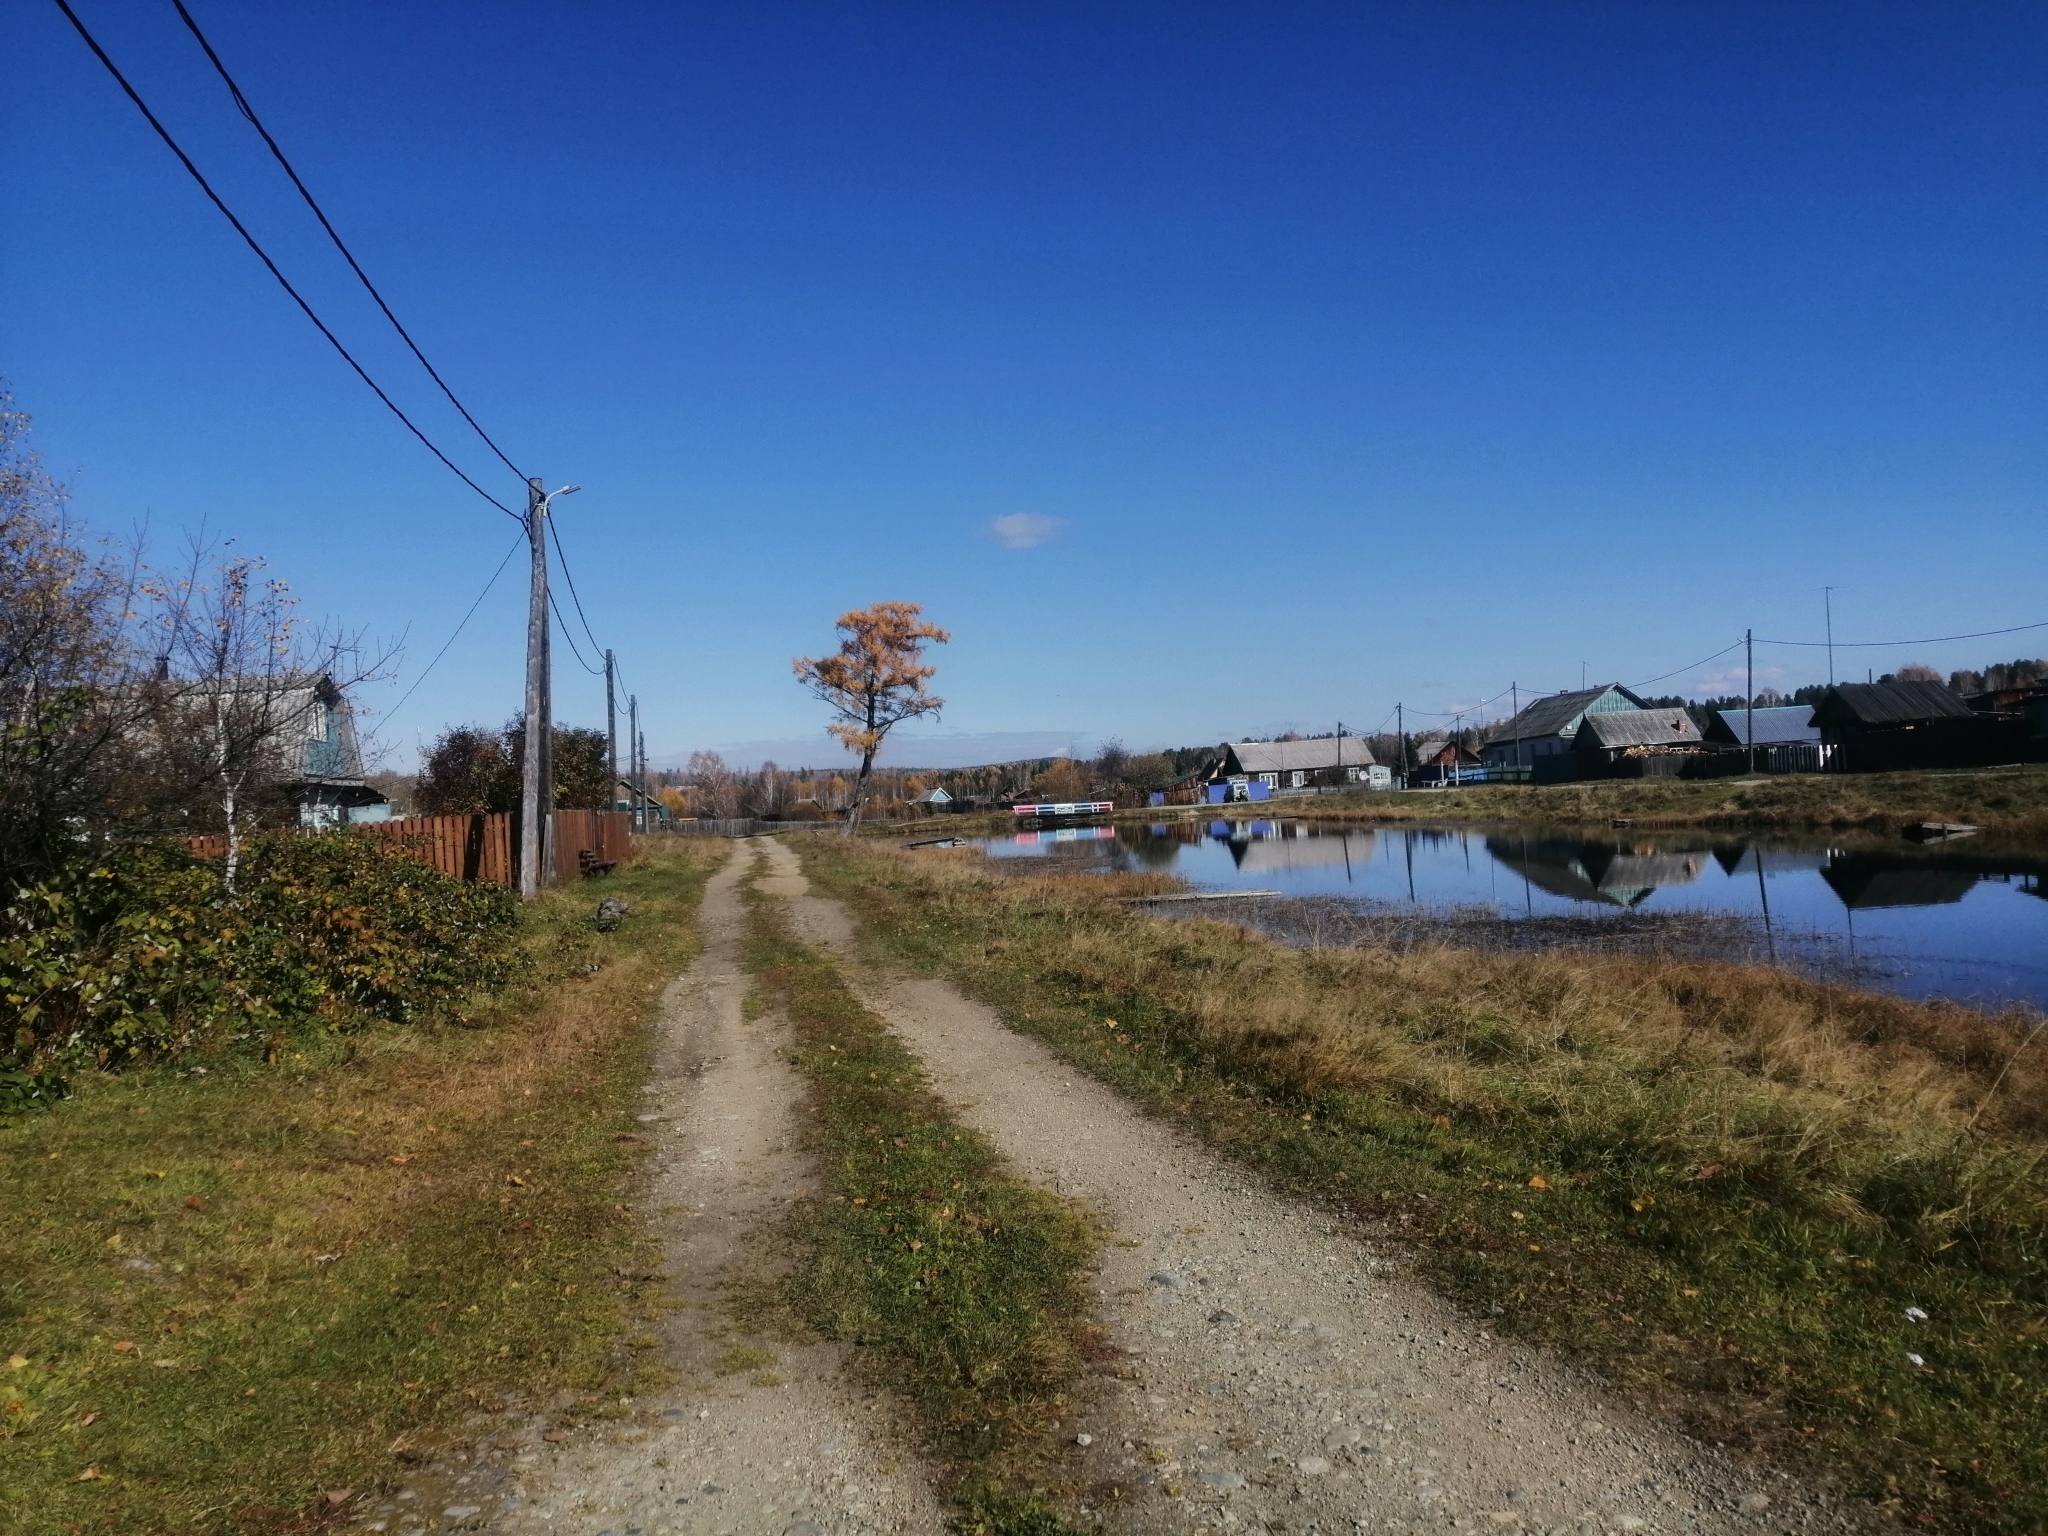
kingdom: Plantae
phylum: Tracheophyta
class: Pinopsida
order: Pinales
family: Pinaceae
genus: Larix
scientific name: Larix sibirica
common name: Siberian larch
